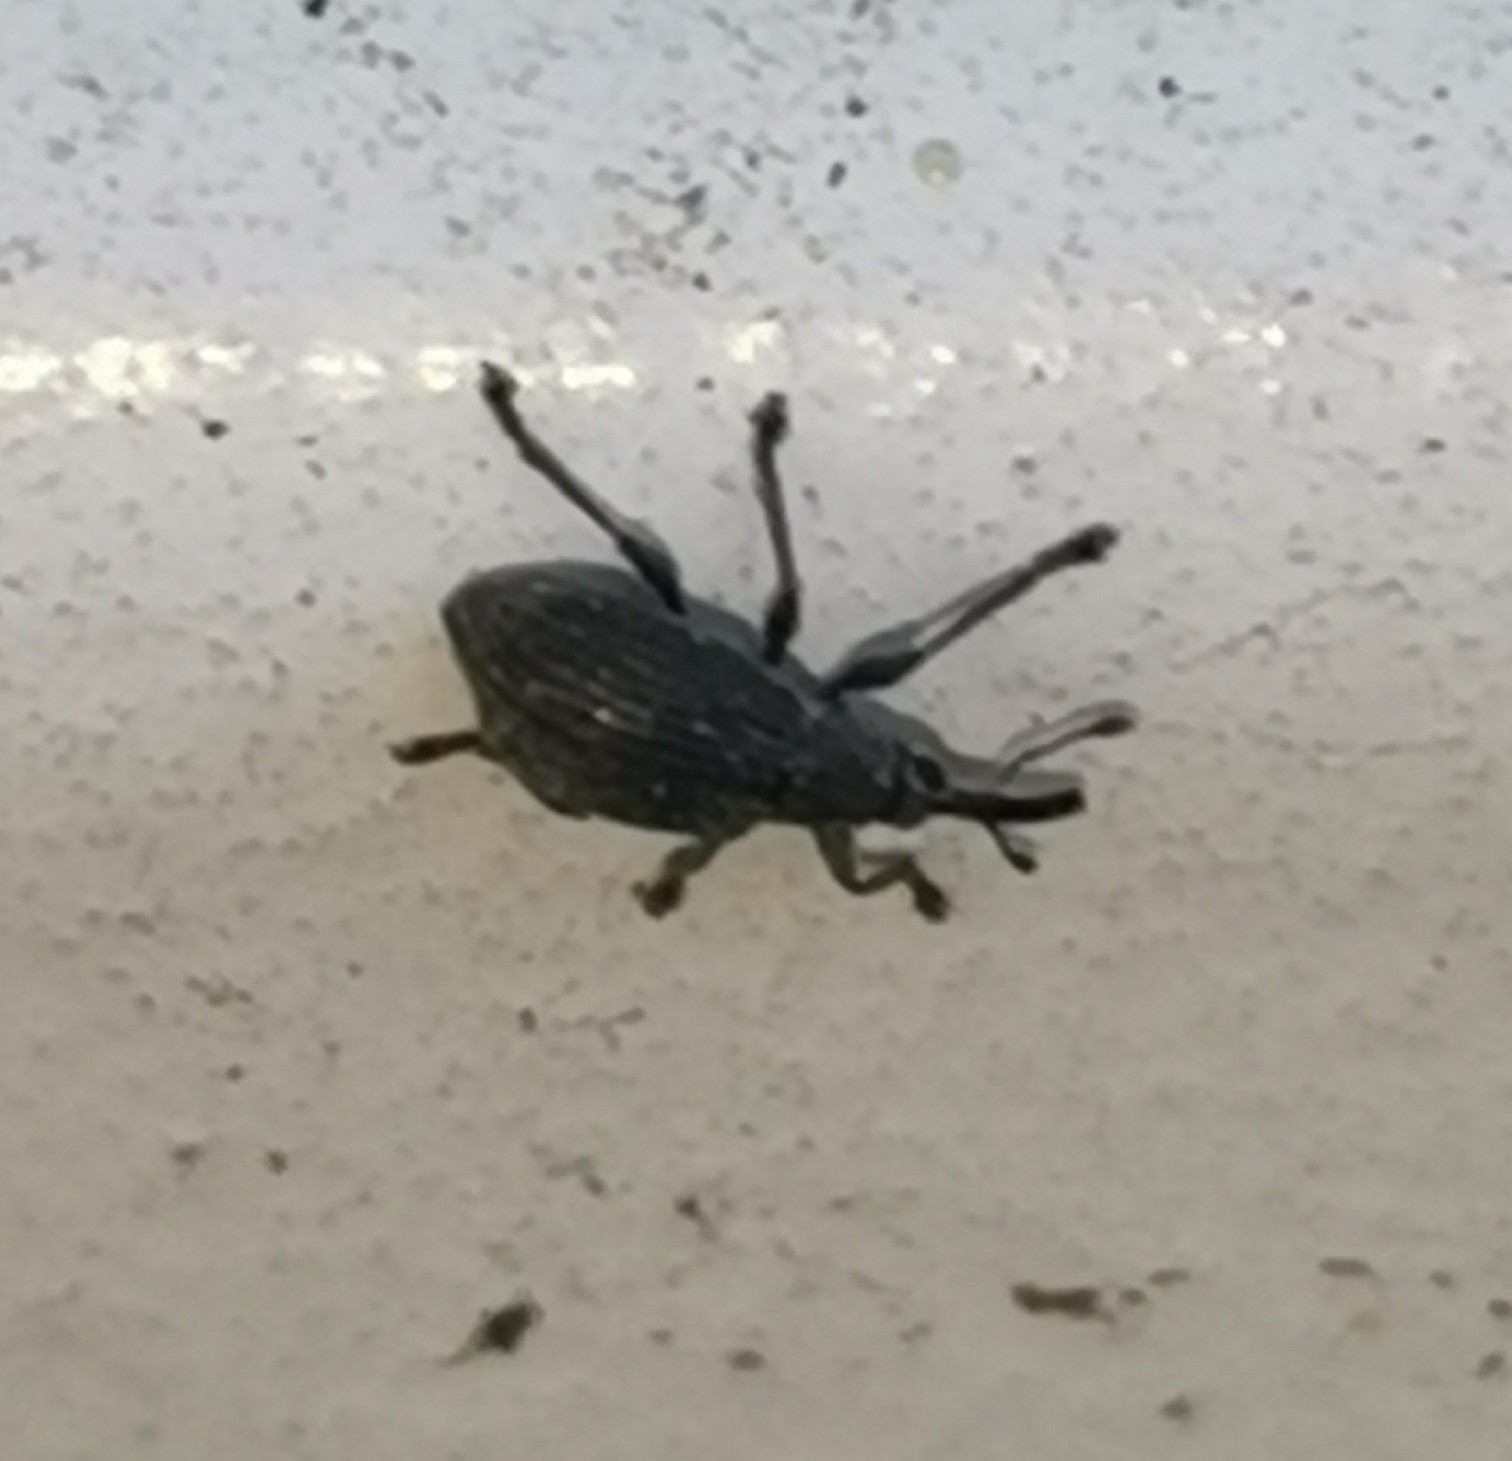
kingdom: Animalia
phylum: Arthropoda
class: Insecta
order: Coleoptera
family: Brentidae
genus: Betulapion
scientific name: Betulapion simile
